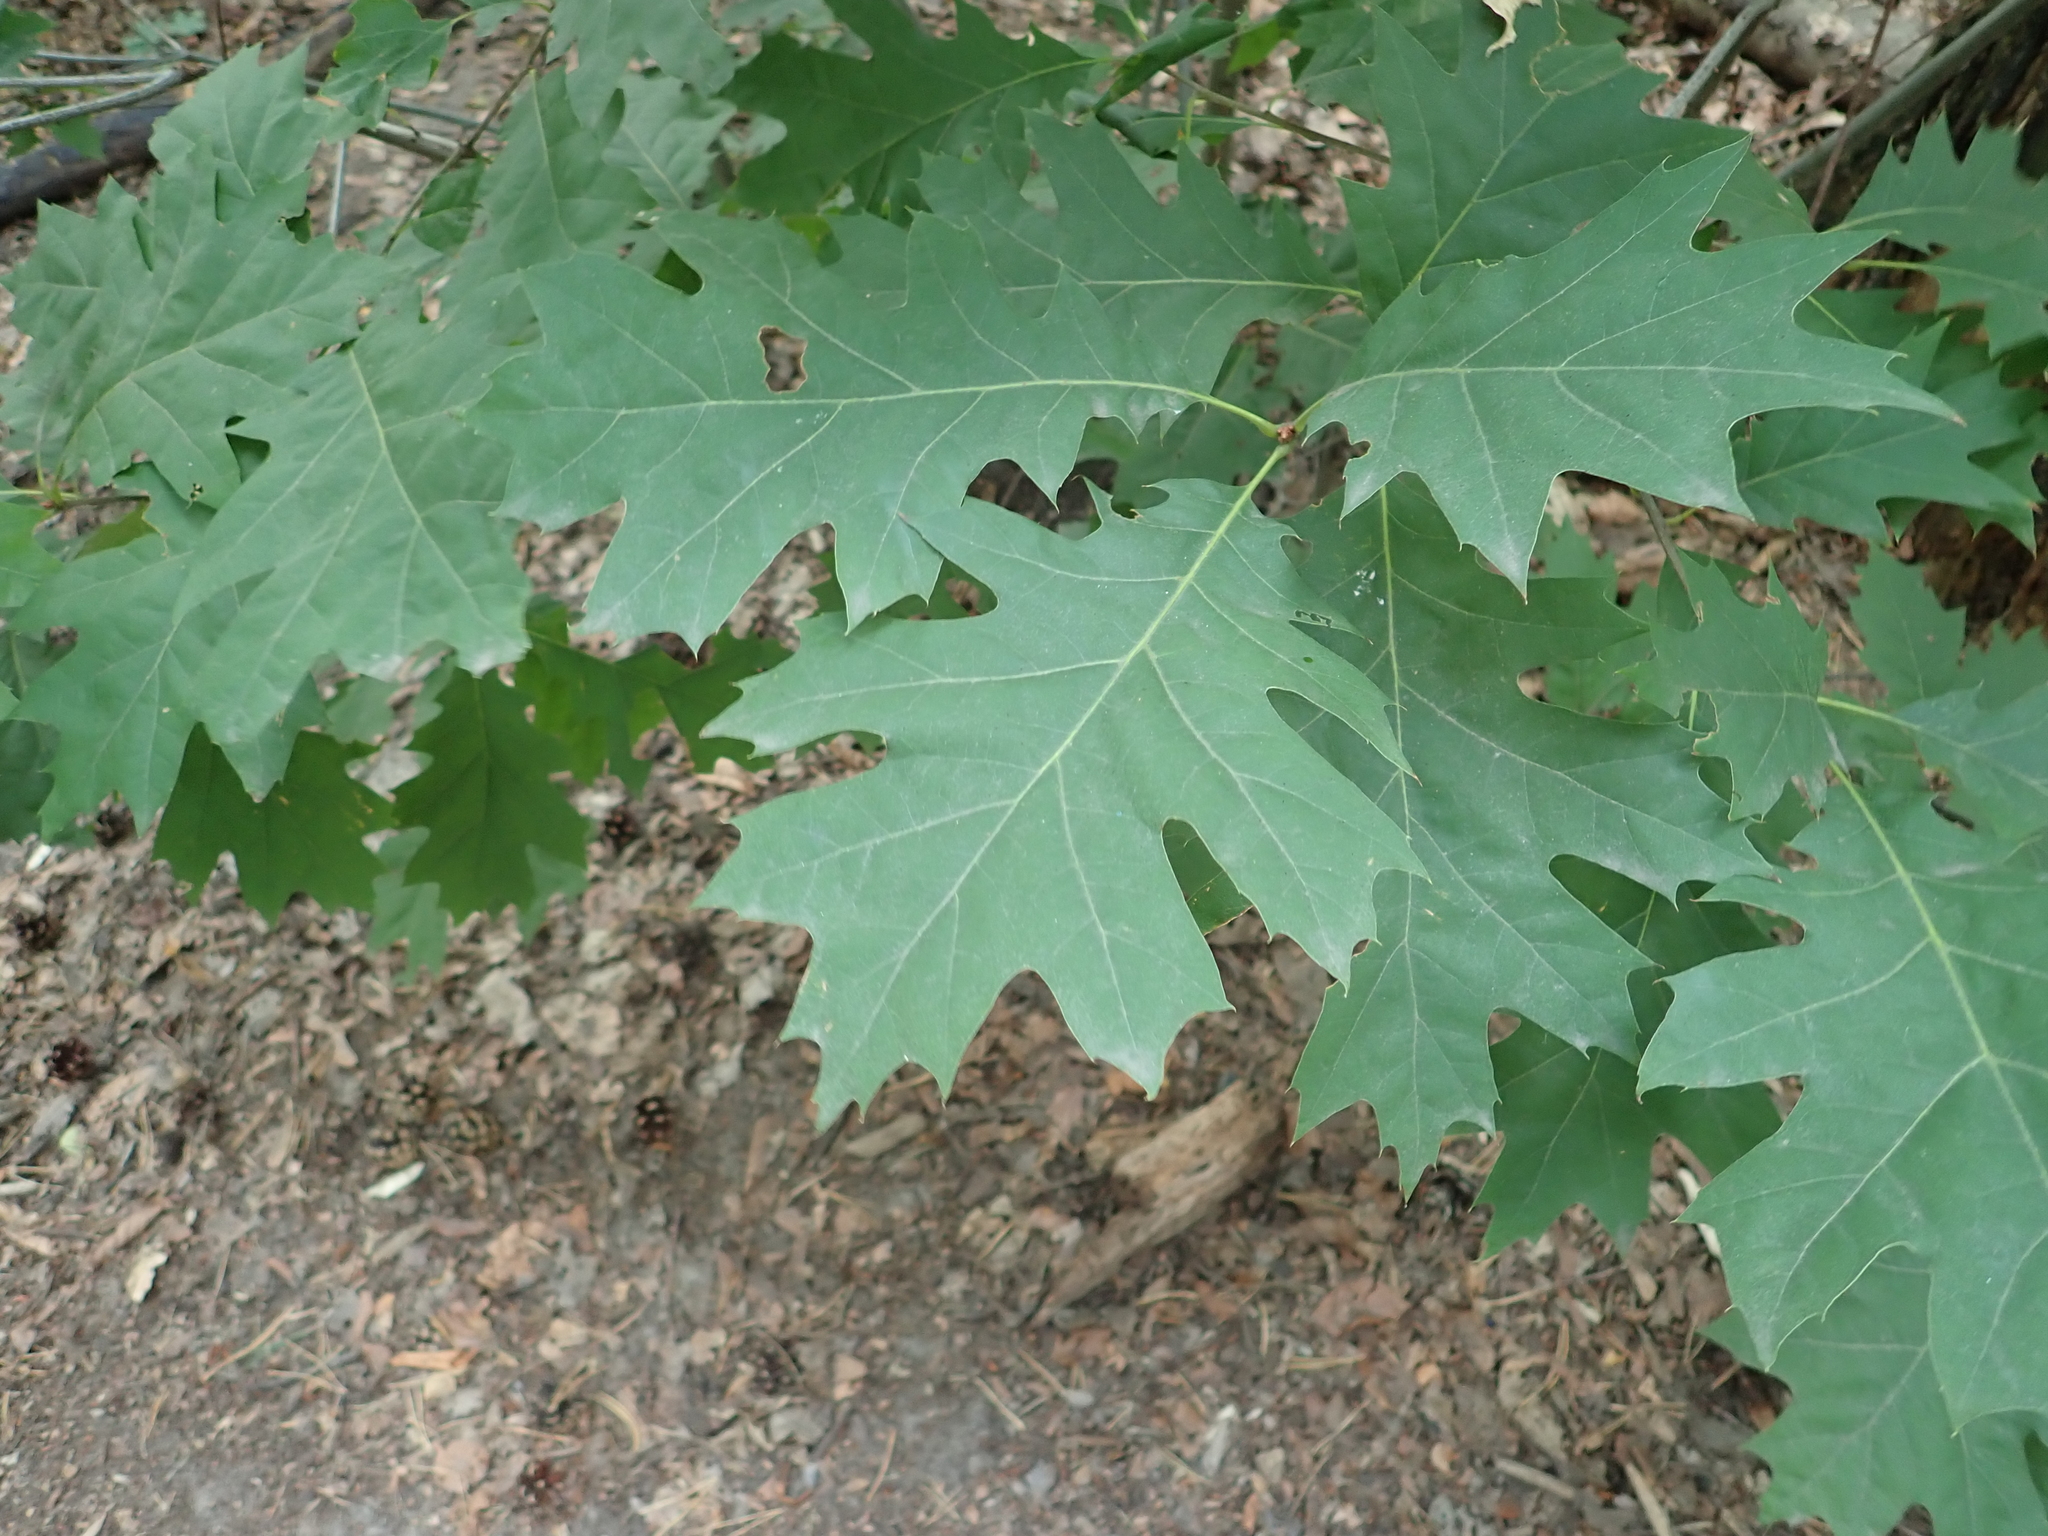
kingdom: Plantae
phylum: Tracheophyta
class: Magnoliopsida
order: Fagales
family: Fagaceae
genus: Quercus
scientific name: Quercus rubra
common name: Red oak
